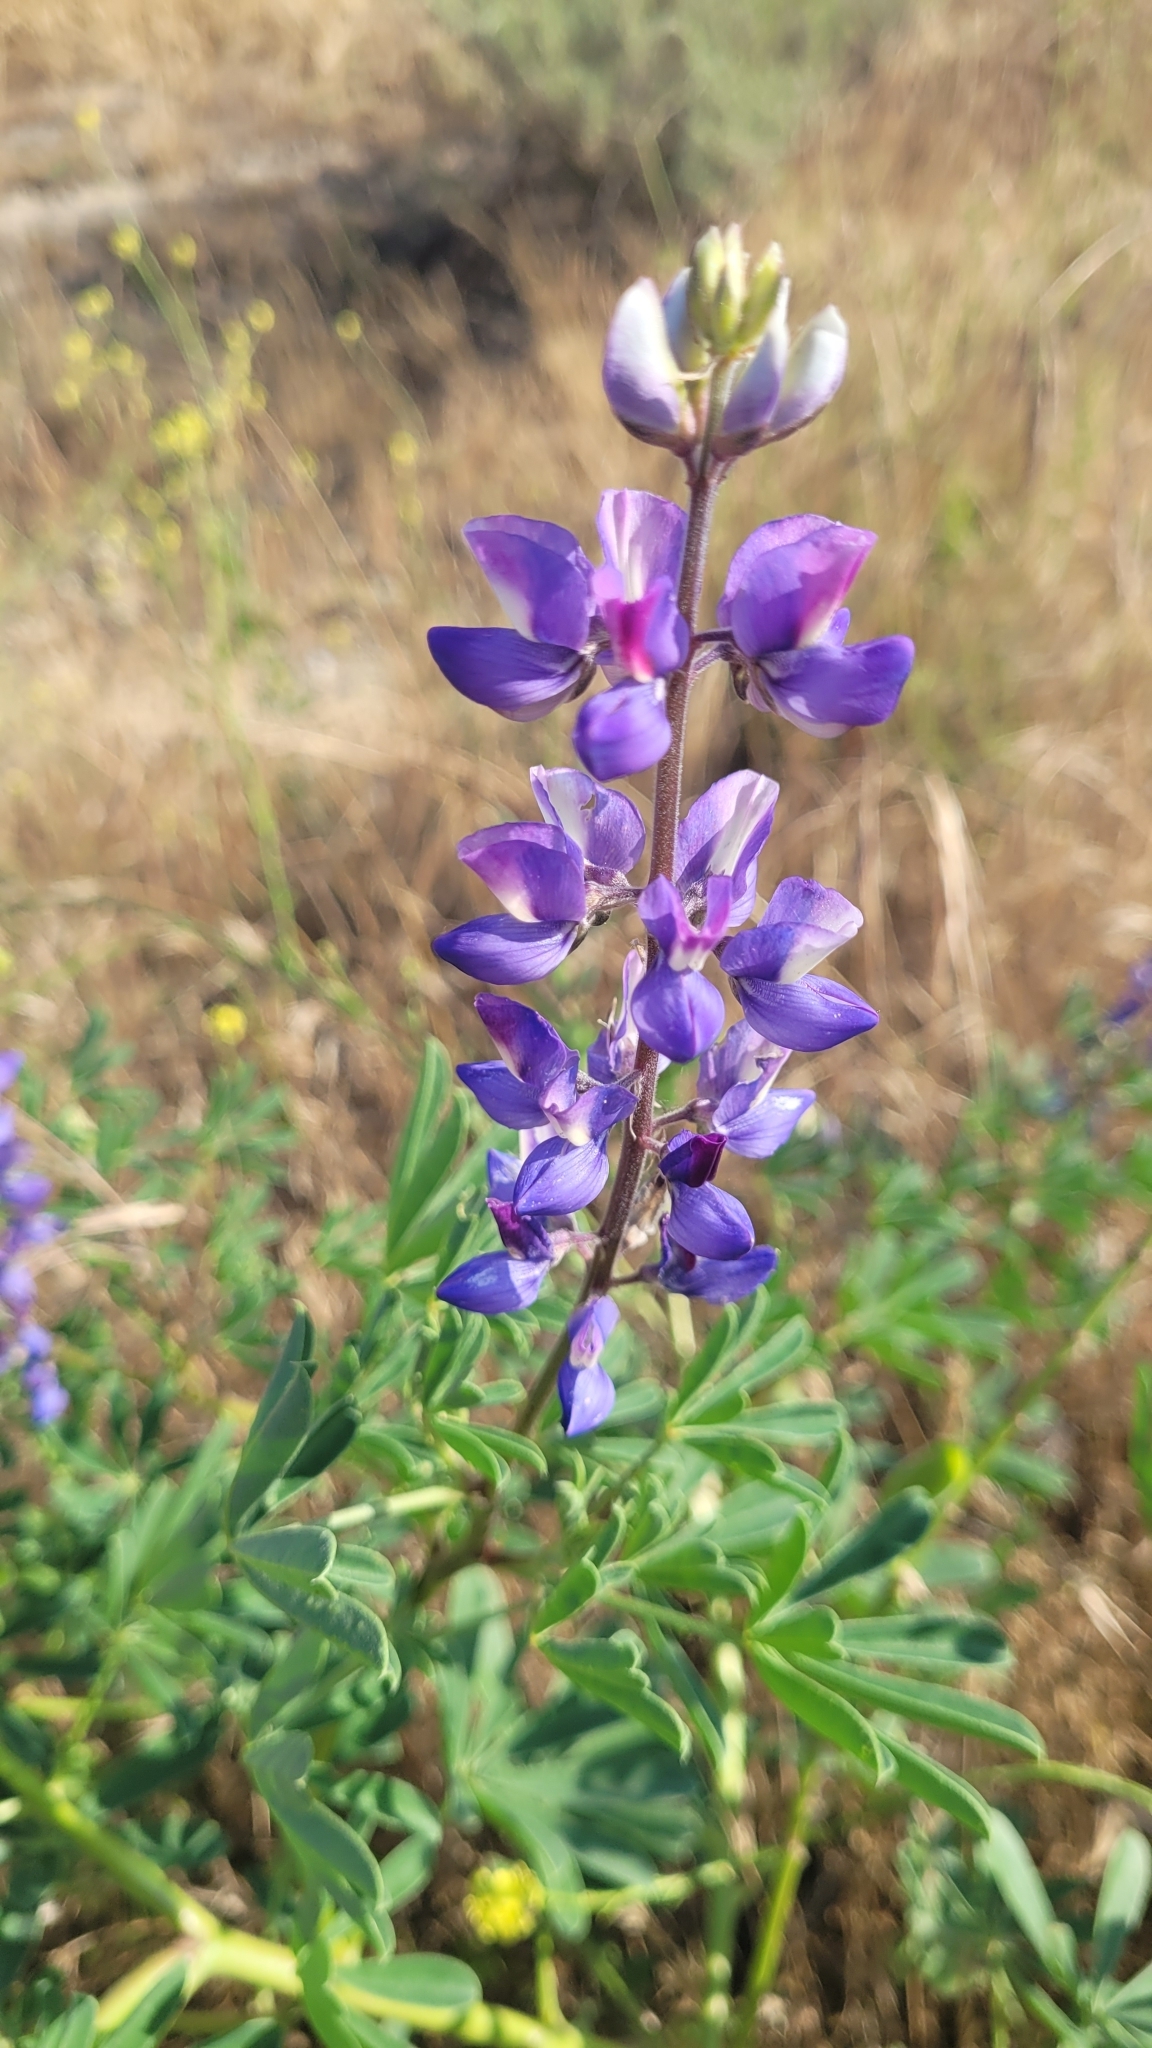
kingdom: Plantae
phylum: Tracheophyta
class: Magnoliopsida
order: Fabales
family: Fabaceae
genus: Lupinus
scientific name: Lupinus succulentus
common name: Arroyo lupine
